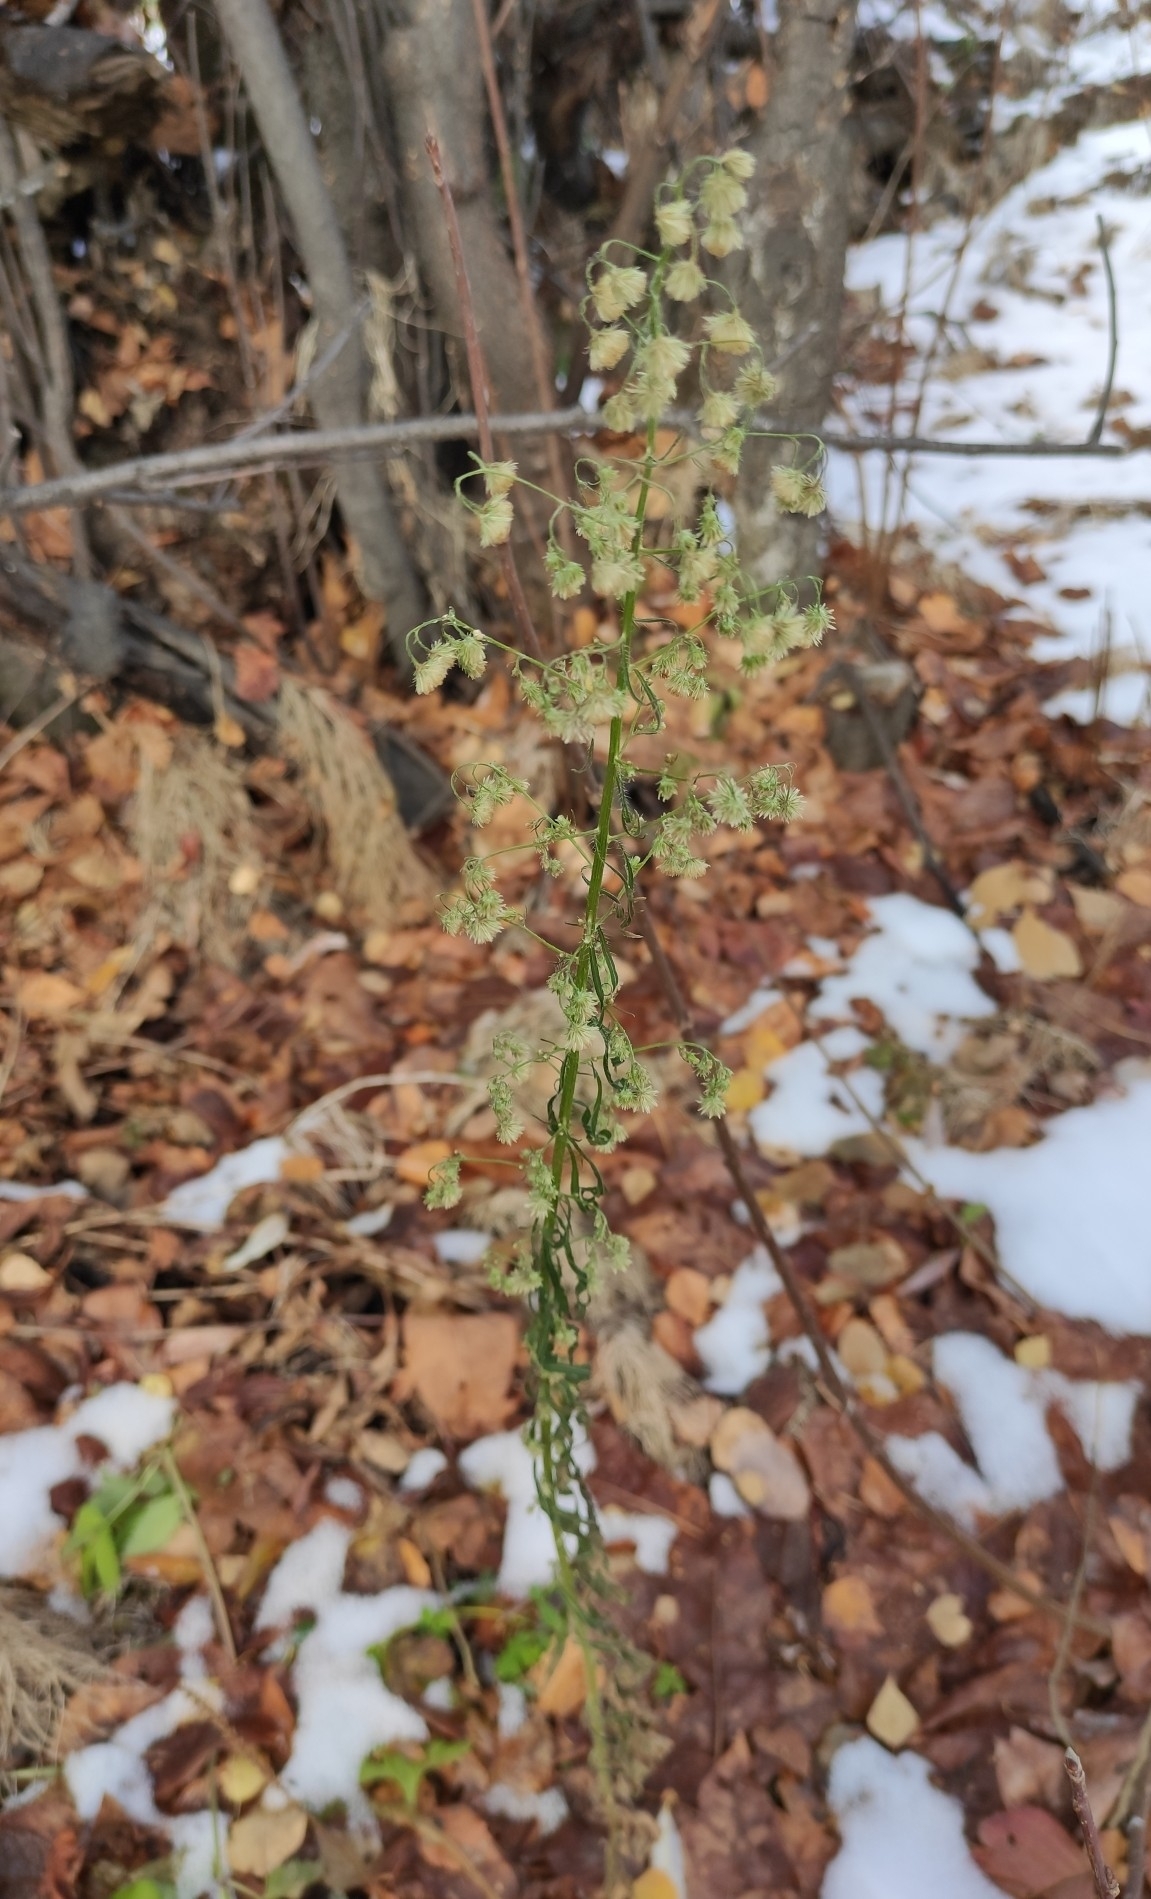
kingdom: Plantae
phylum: Tracheophyta
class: Magnoliopsida
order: Asterales
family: Asteraceae
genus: Erigeron
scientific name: Erigeron canadensis
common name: Canadian fleabane
